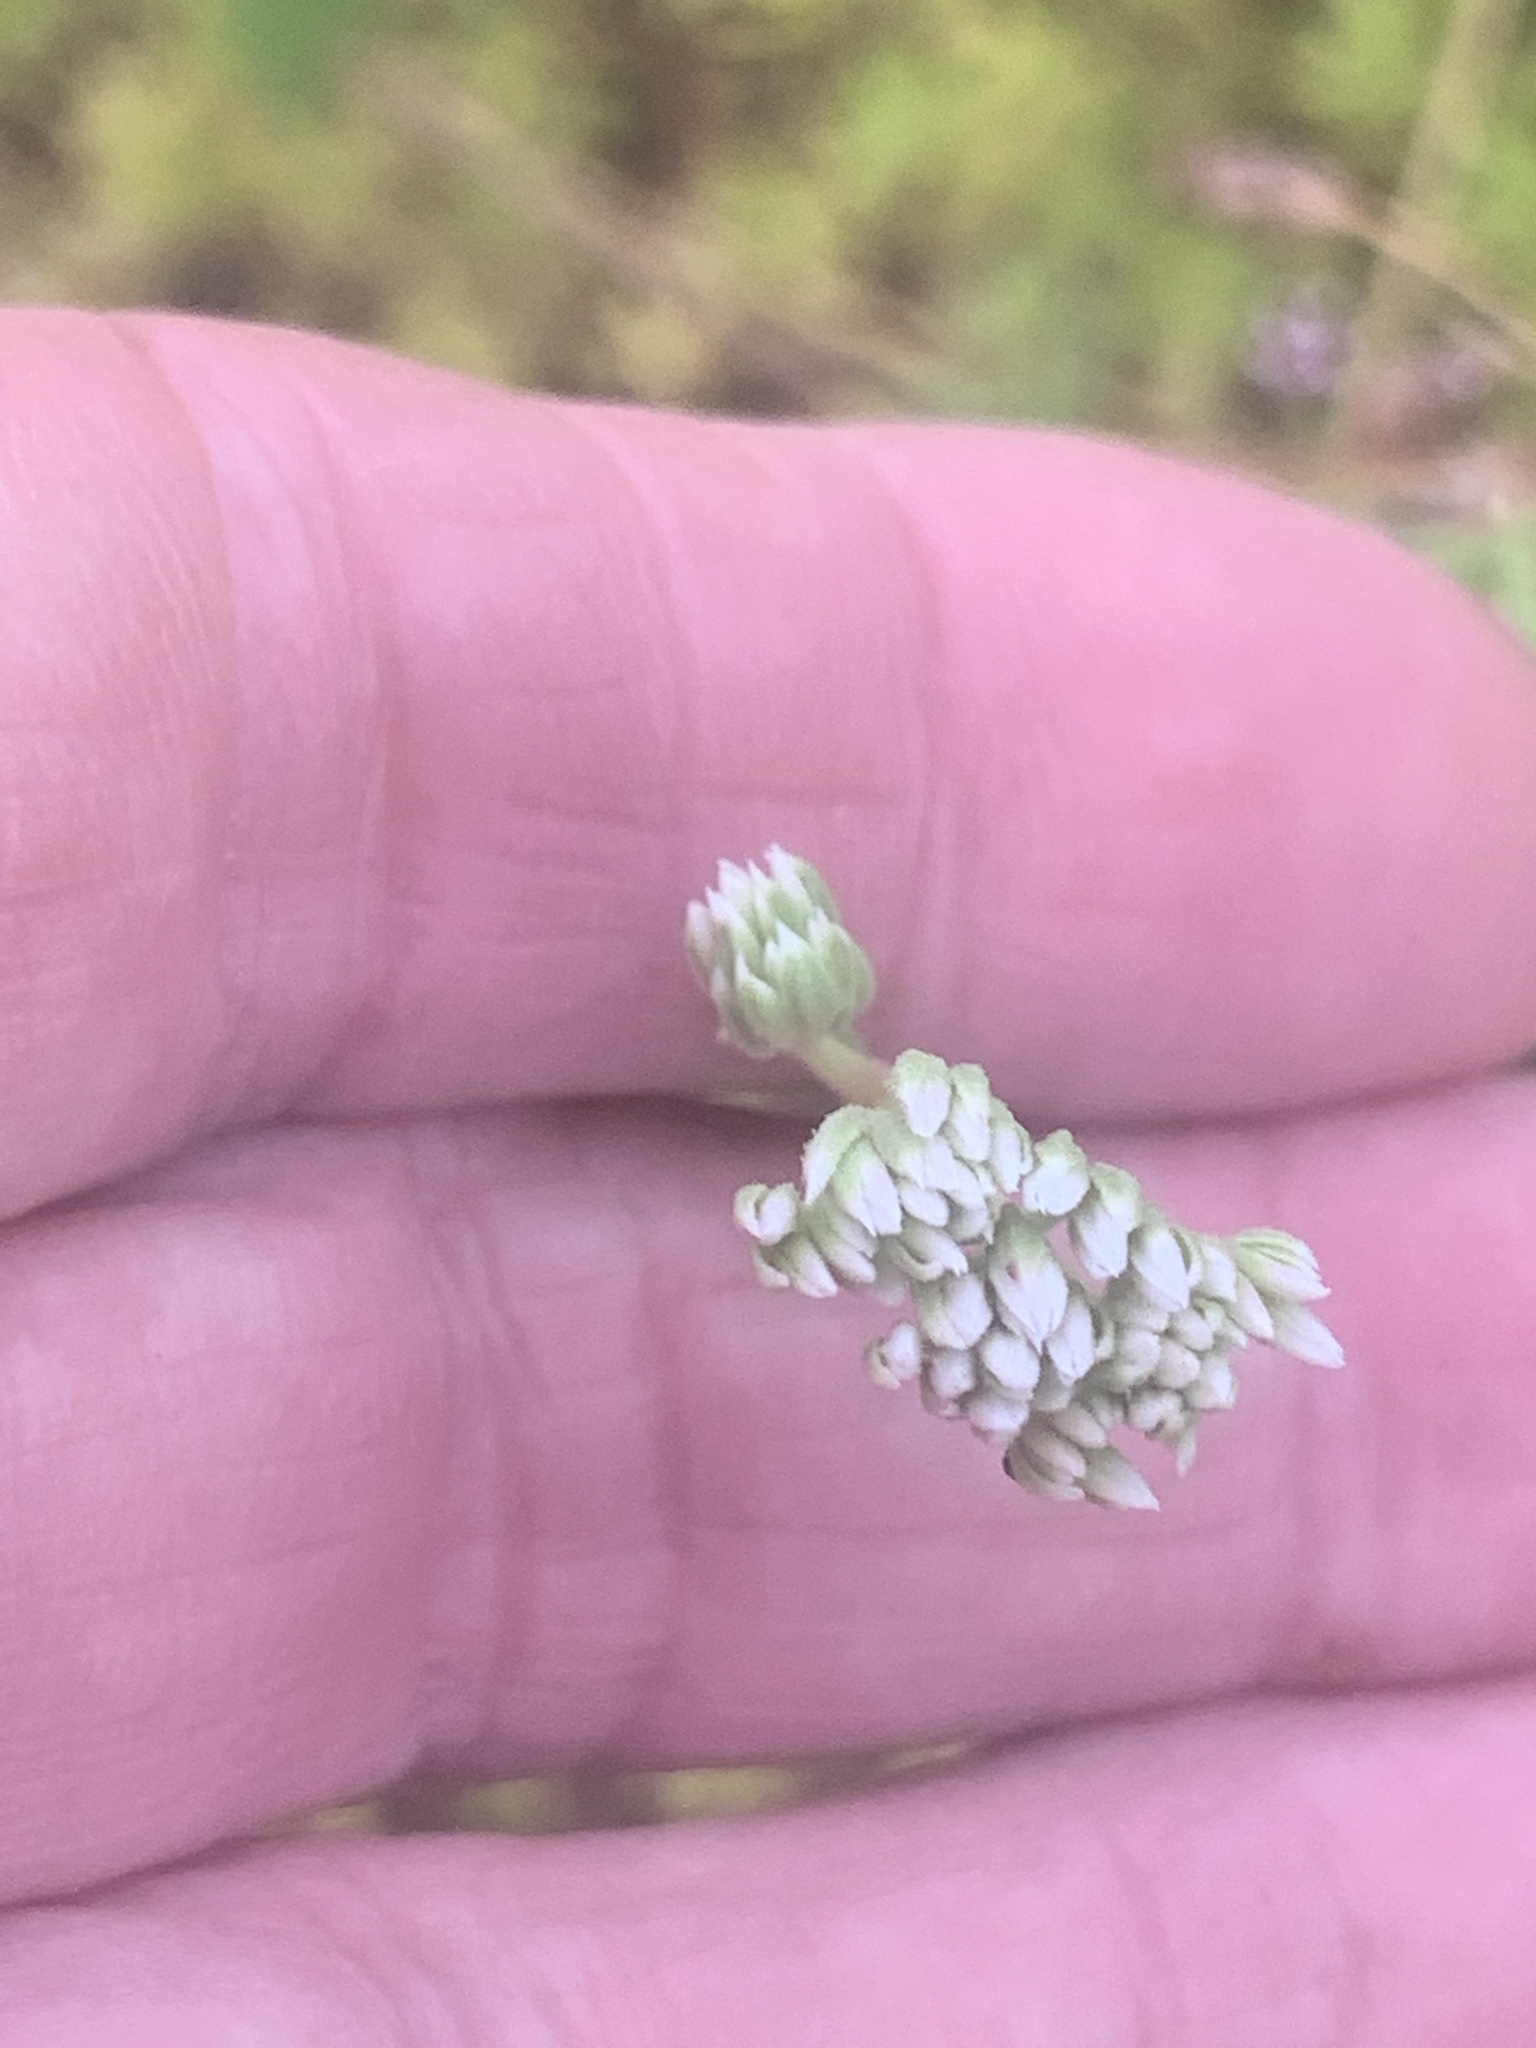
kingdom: Plantae
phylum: Tracheophyta
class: Magnoliopsida
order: Asterales
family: Asteraceae
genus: Mikania
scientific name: Mikania scandens
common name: Climbing hempvine
